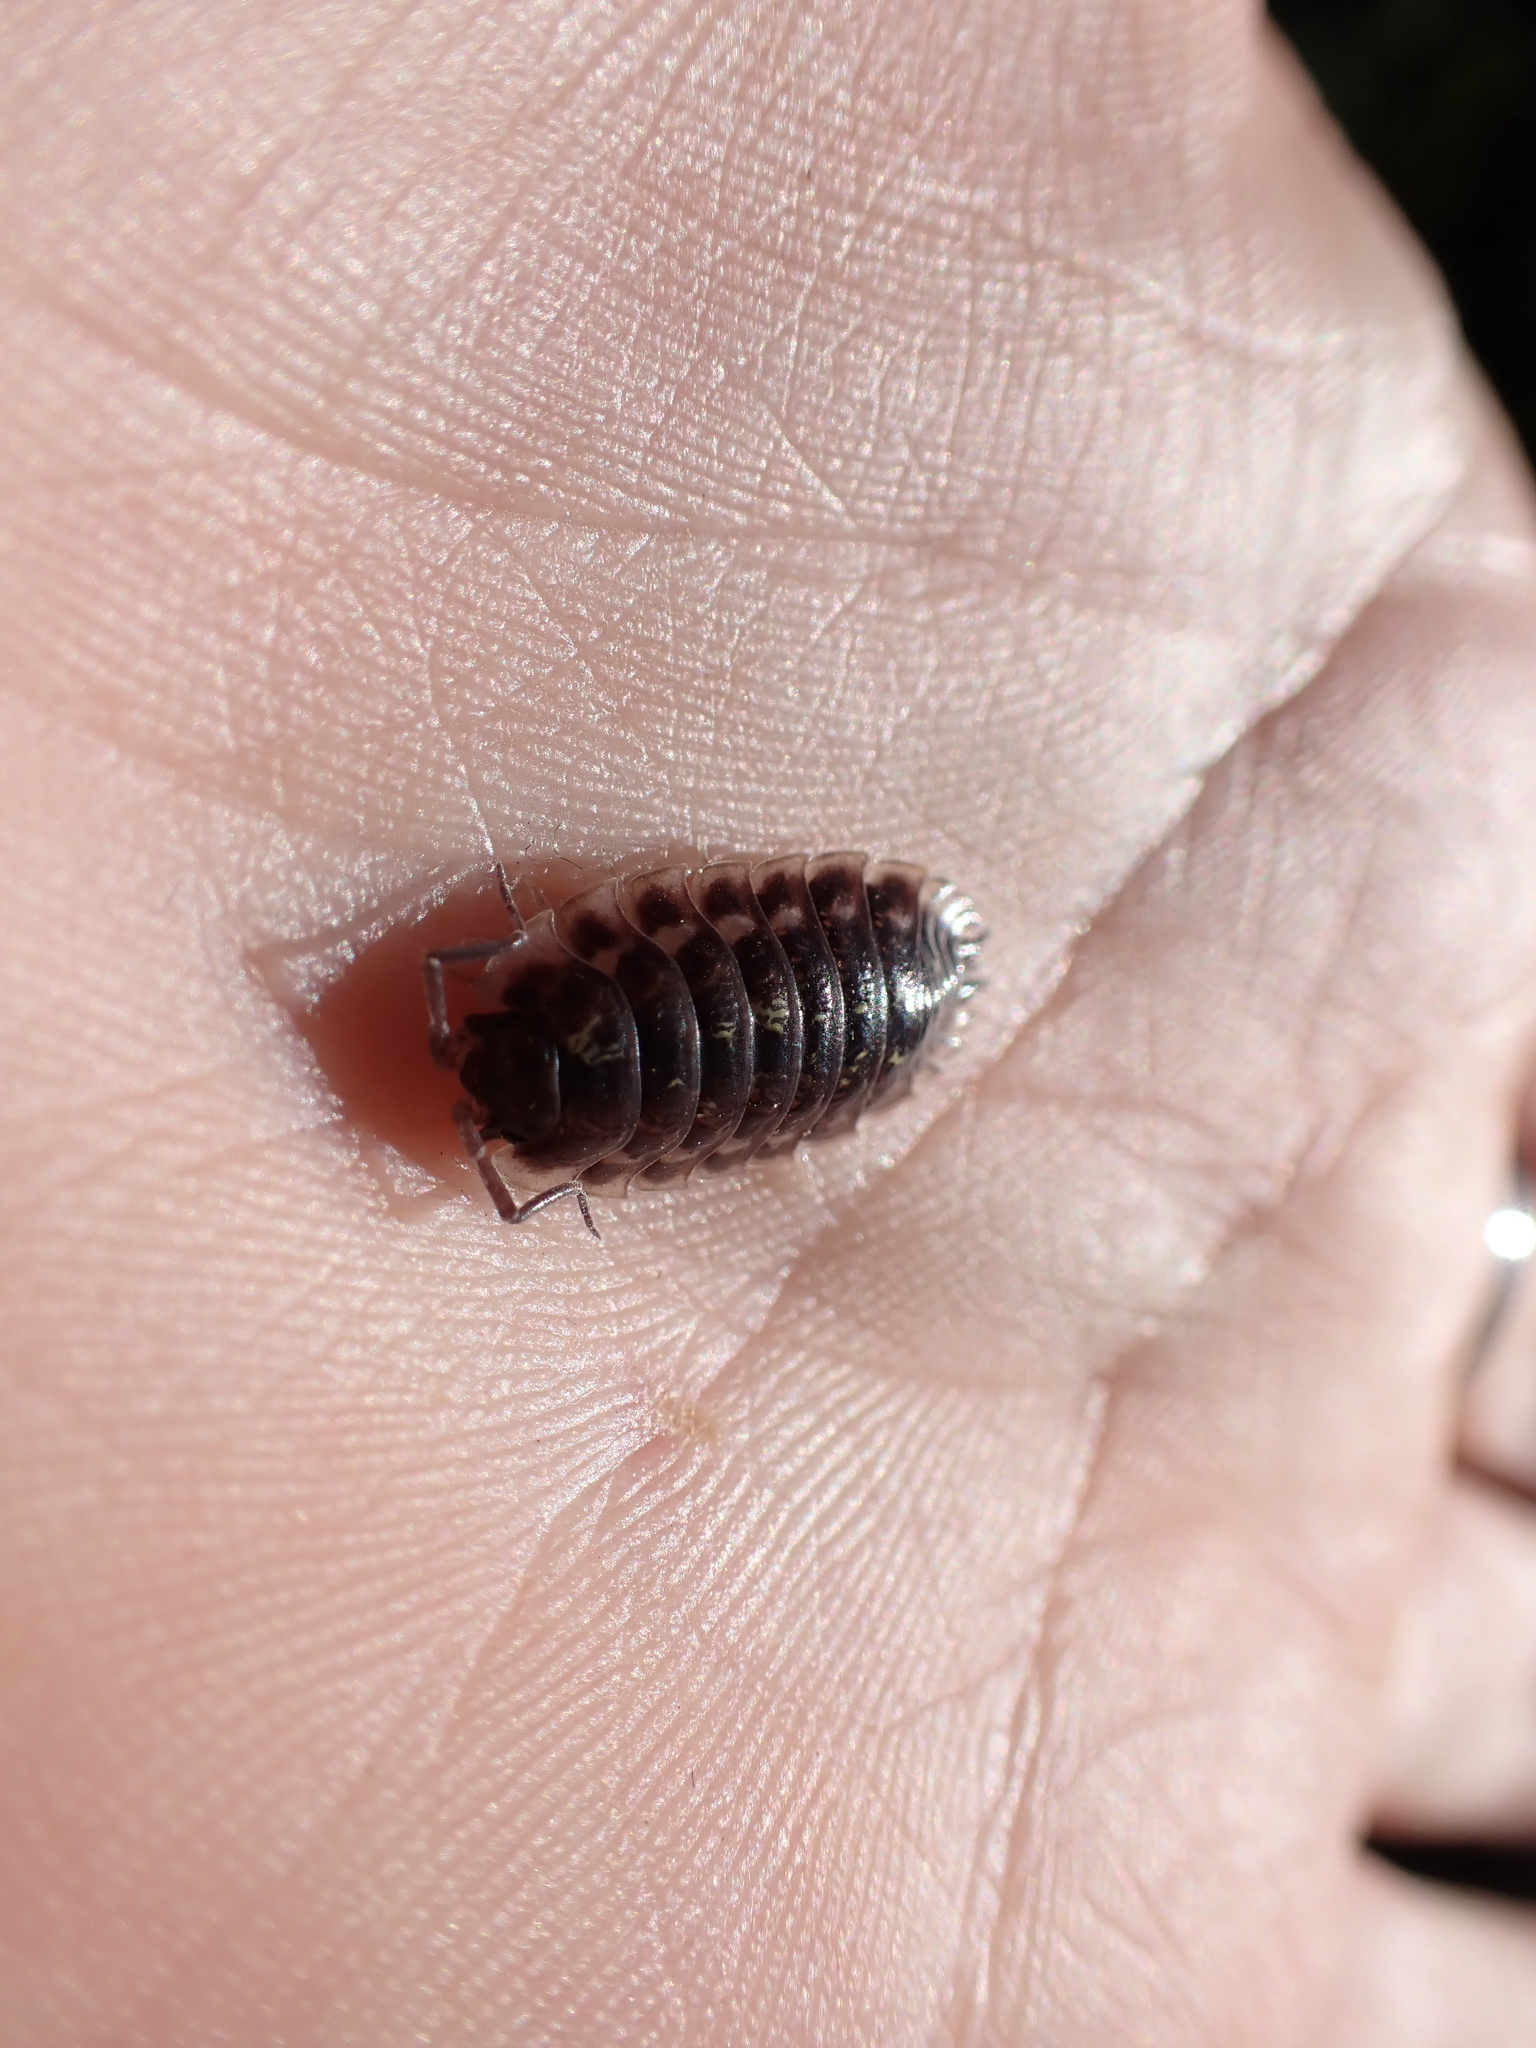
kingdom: Animalia
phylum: Arthropoda
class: Malacostraca
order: Isopoda
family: Oniscidae
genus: Oniscus
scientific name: Oniscus asellus
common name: Common shiny woodlouse
